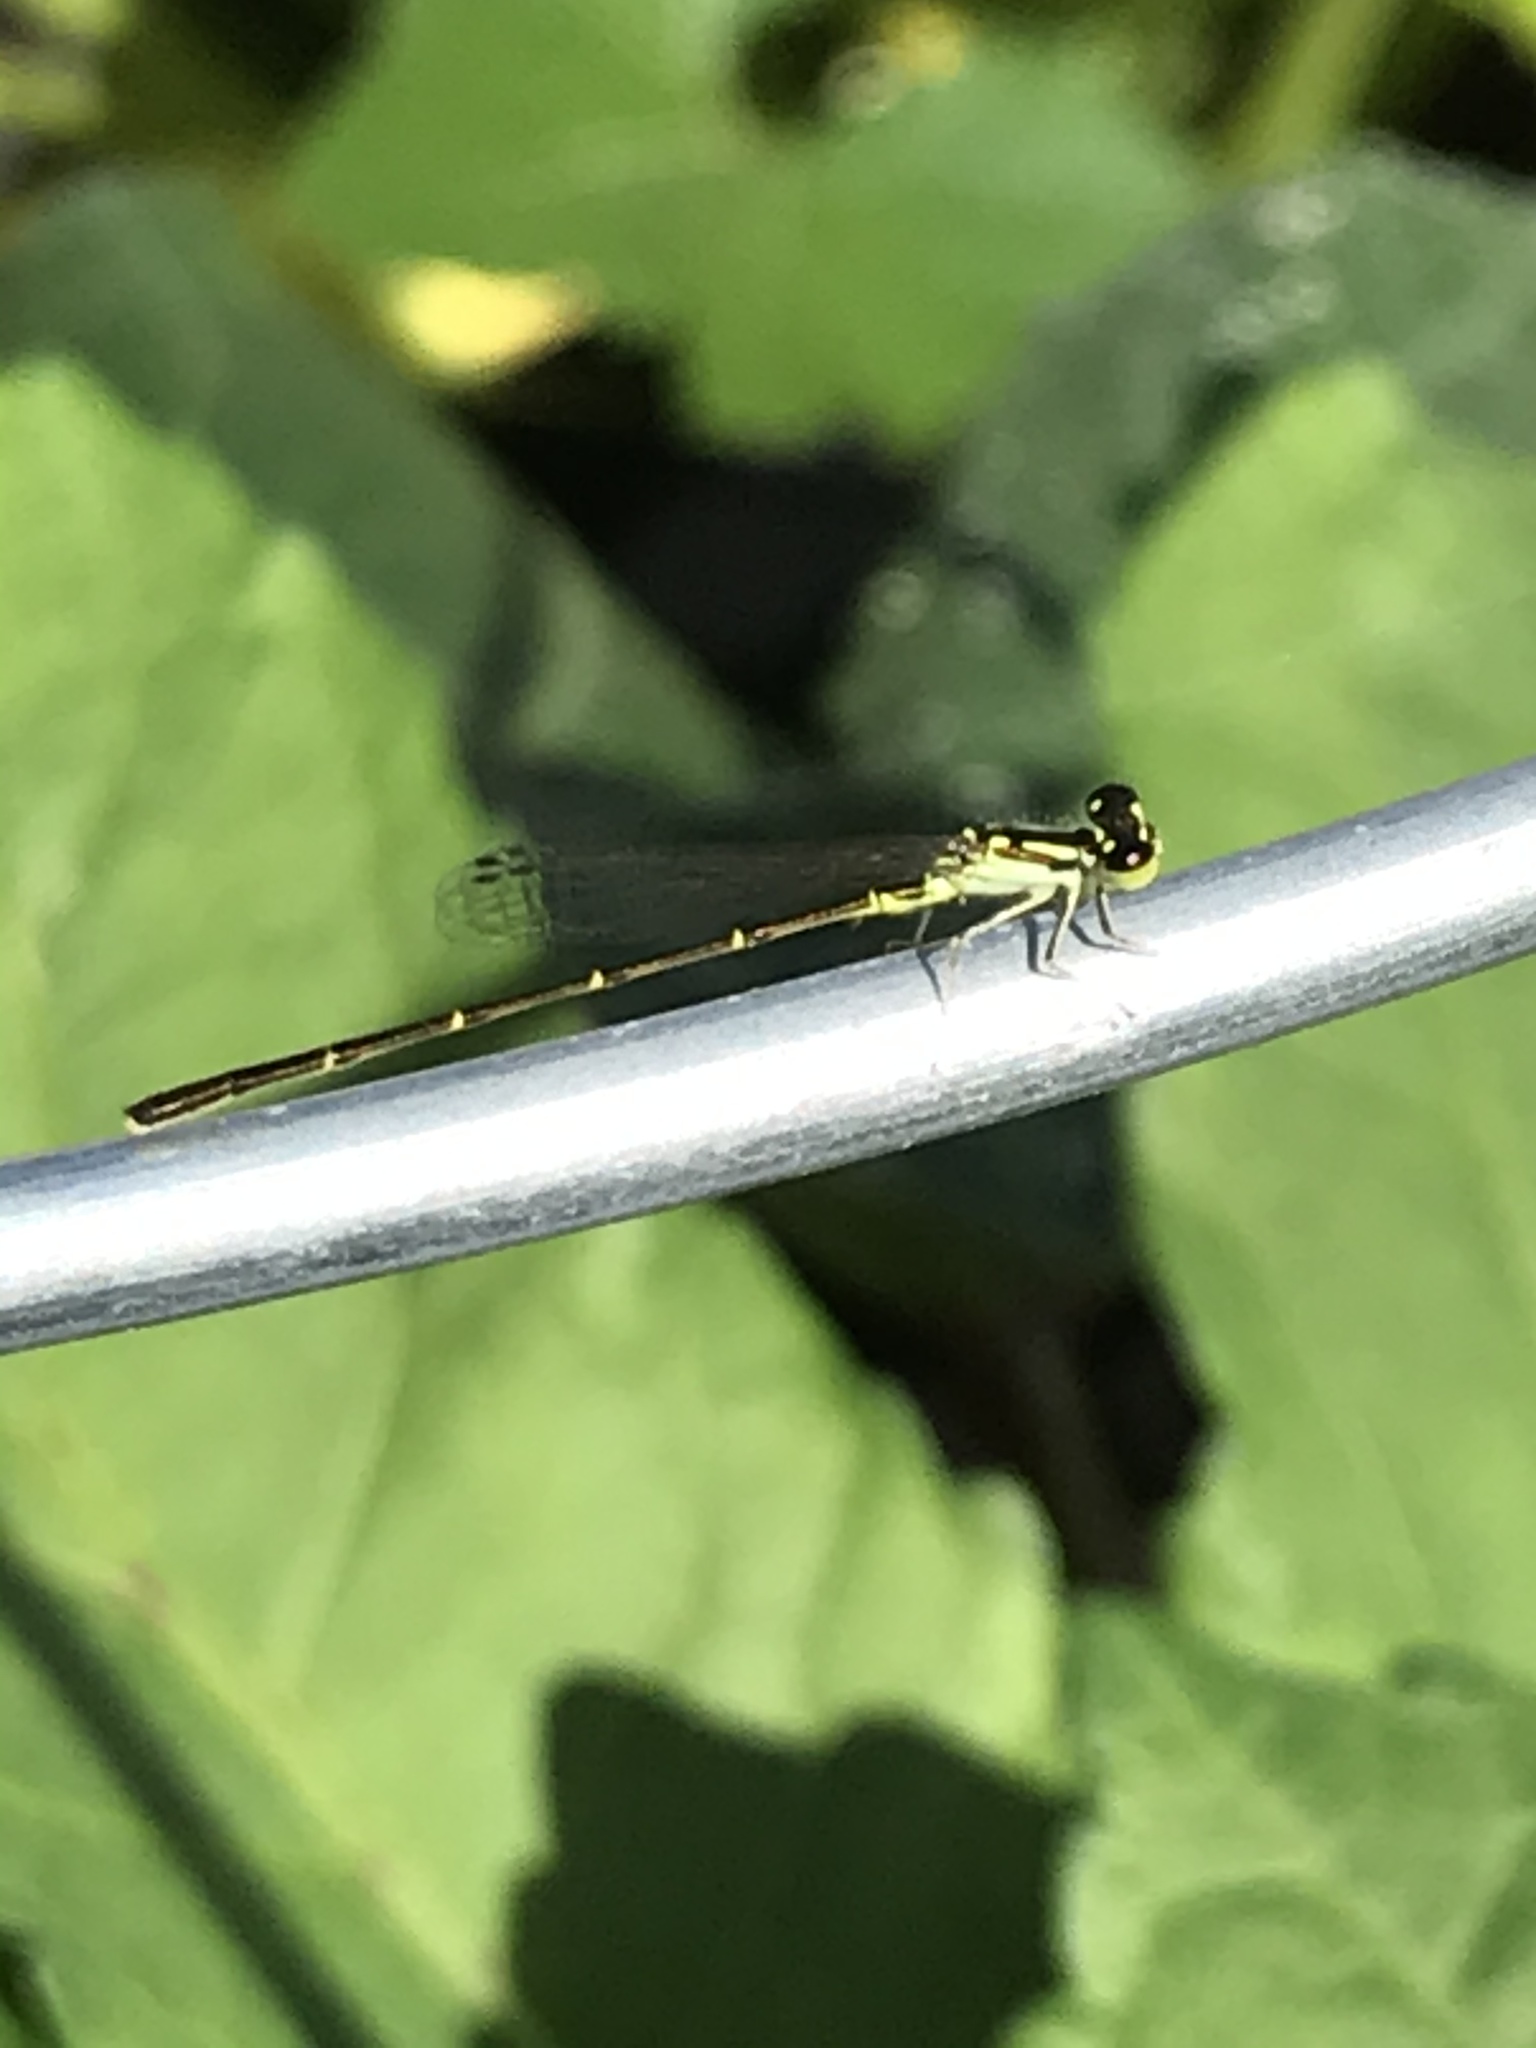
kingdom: Animalia
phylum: Arthropoda
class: Insecta
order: Odonata
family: Coenagrionidae
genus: Ischnura
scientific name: Ischnura posita
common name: Fragile forktail
